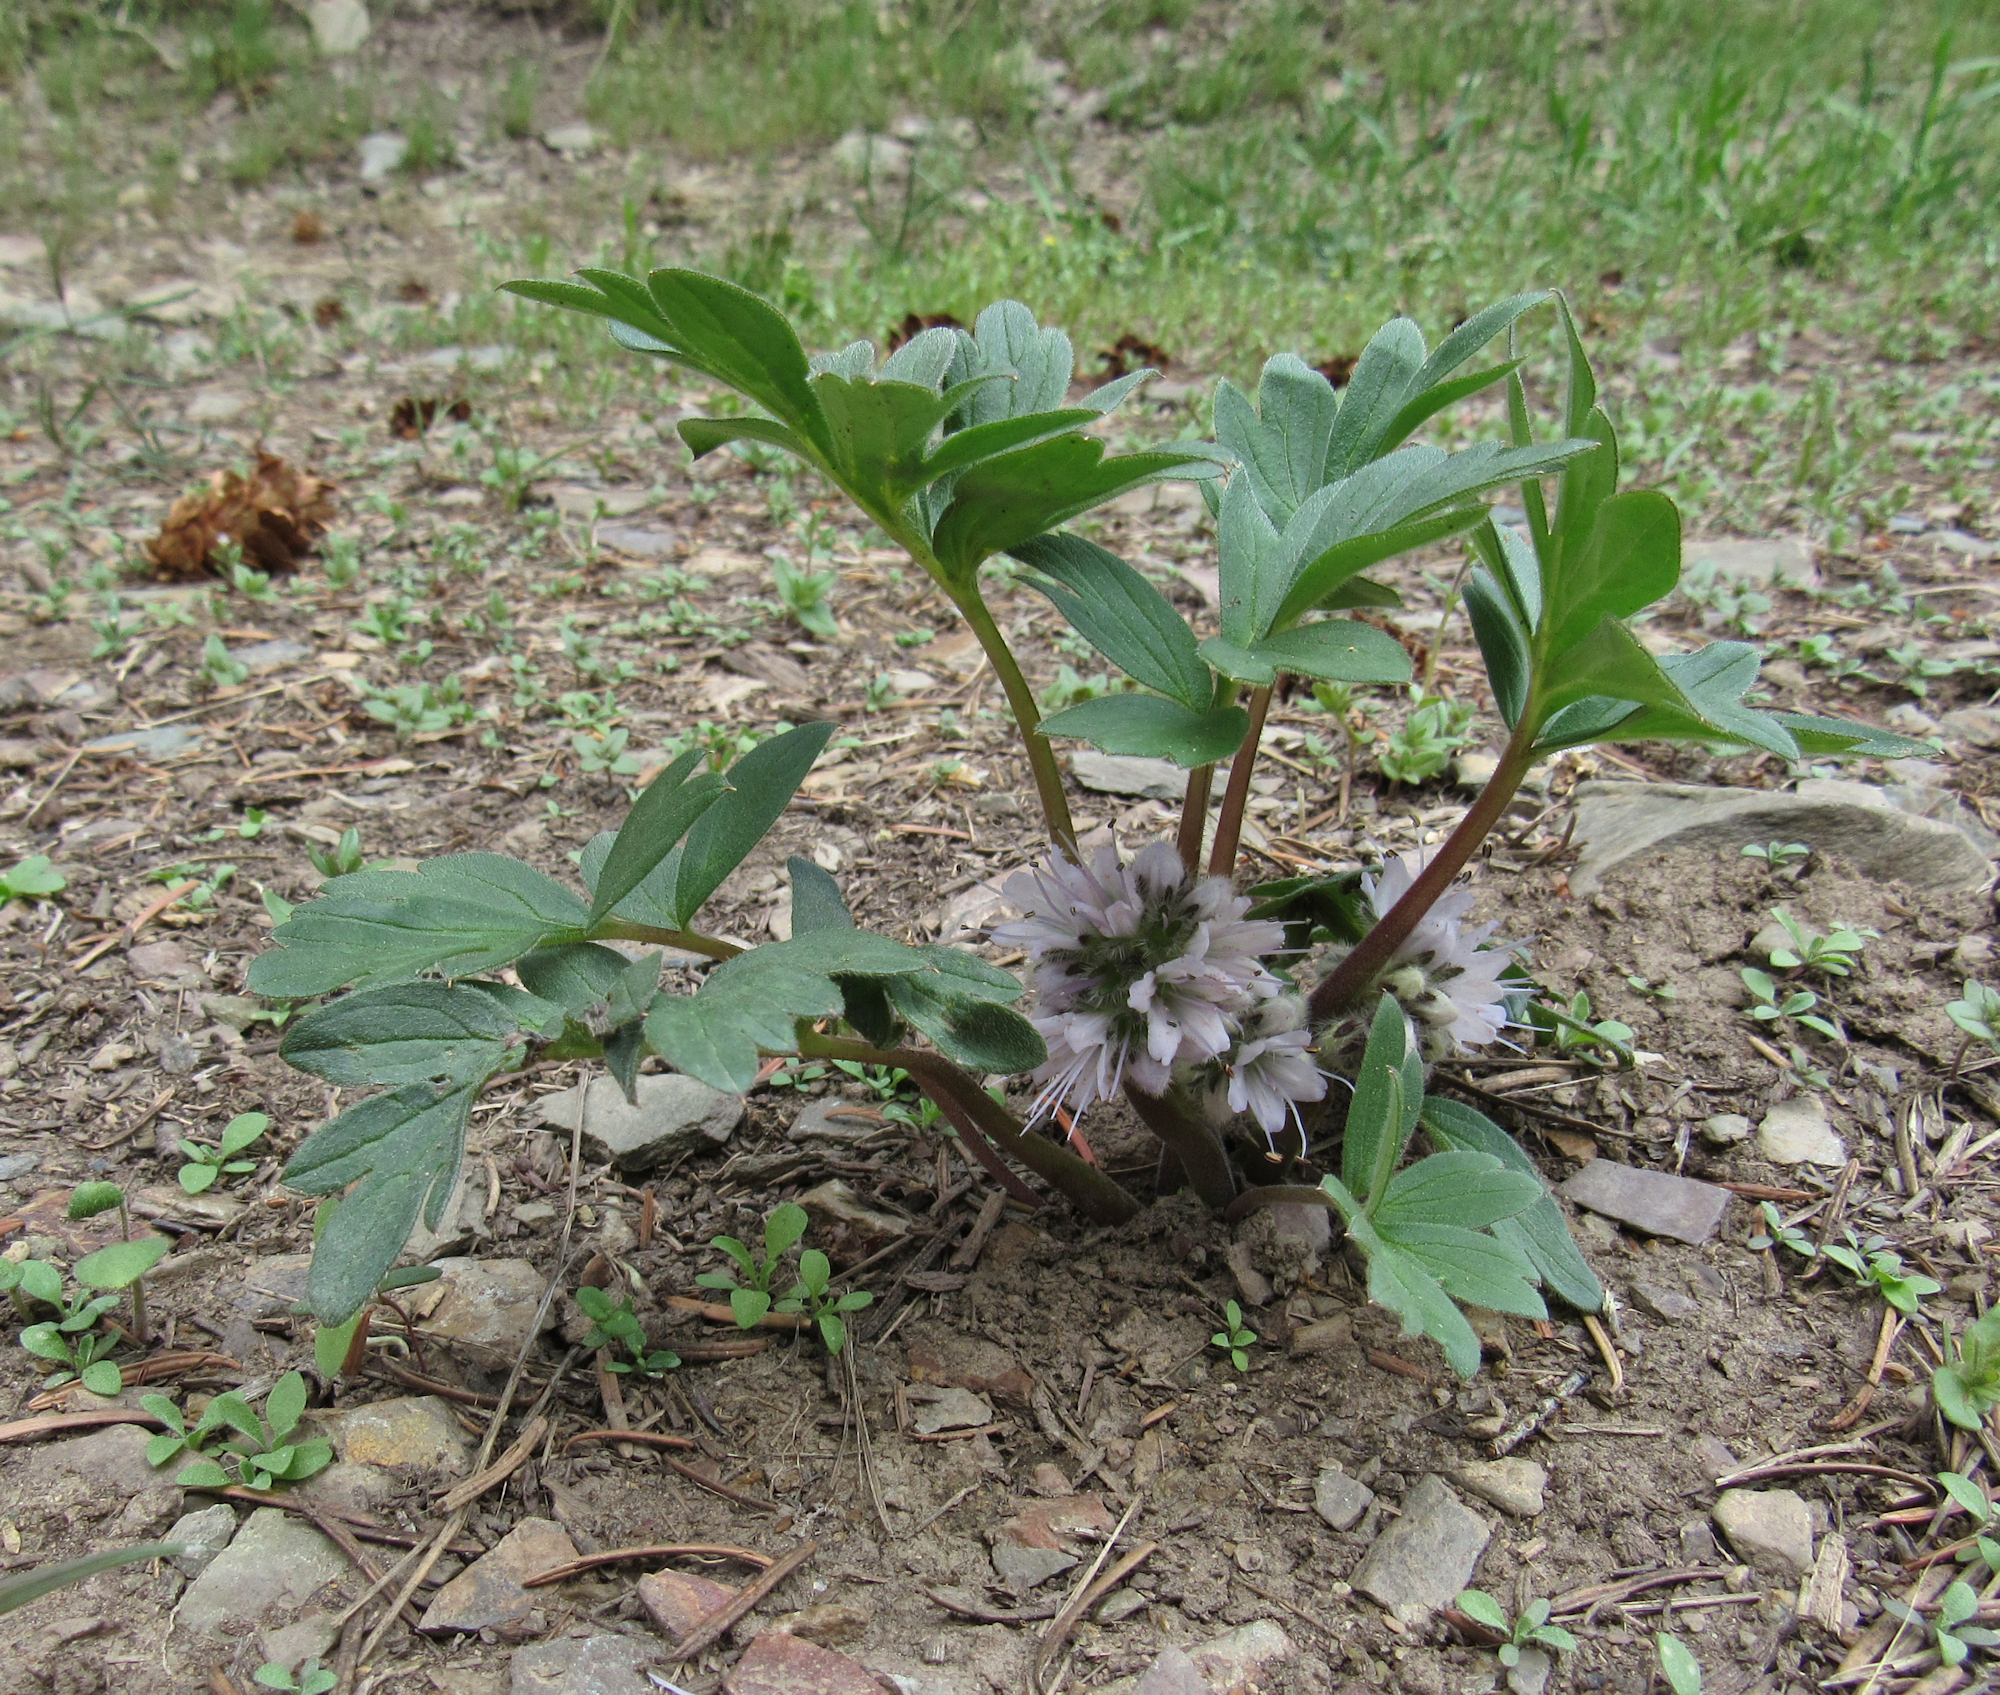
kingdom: Plantae
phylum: Tracheophyta
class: Magnoliopsida
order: Boraginales
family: Hydrophyllaceae
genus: Hydrophyllum
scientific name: Hydrophyllum capitatum
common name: Woollen-breeches
